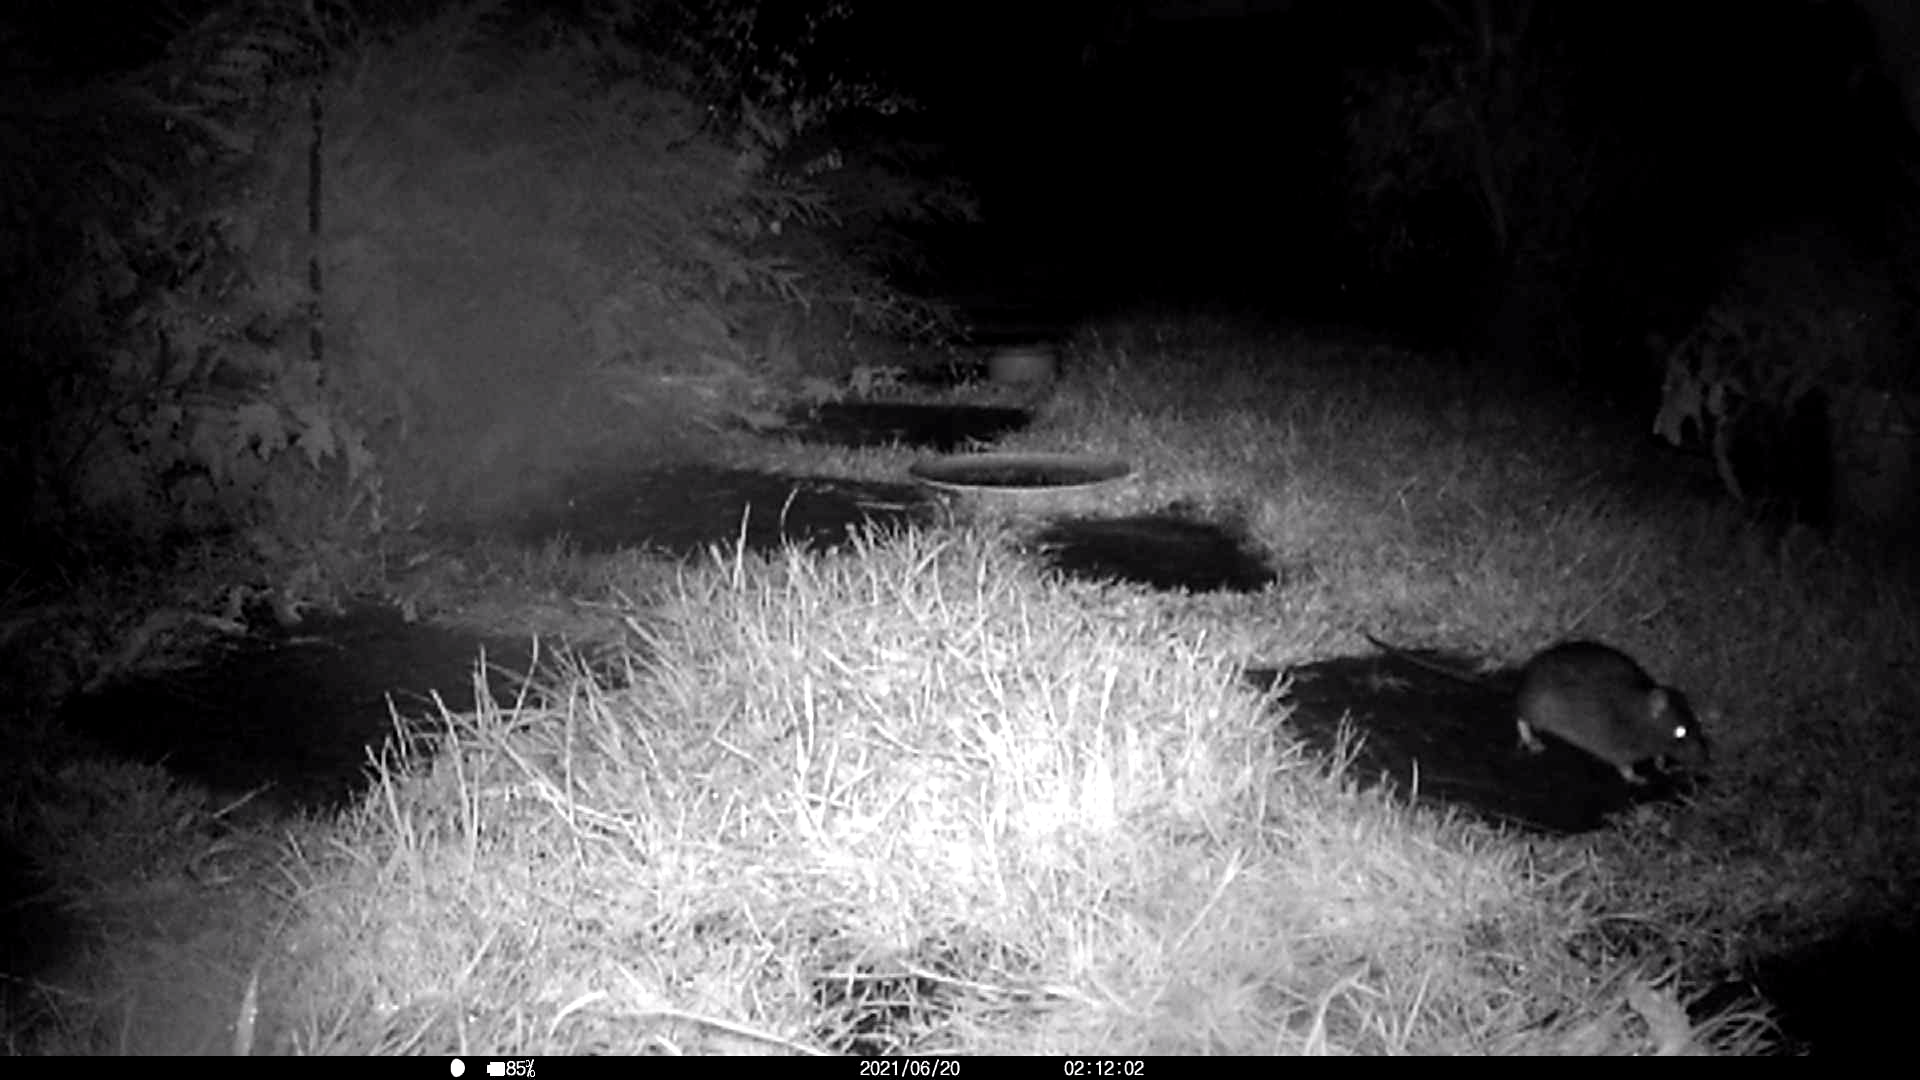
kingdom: Animalia
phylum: Chordata
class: Mammalia
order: Rodentia
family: Muridae
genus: Rattus
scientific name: Rattus norvegicus
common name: Brown rat
